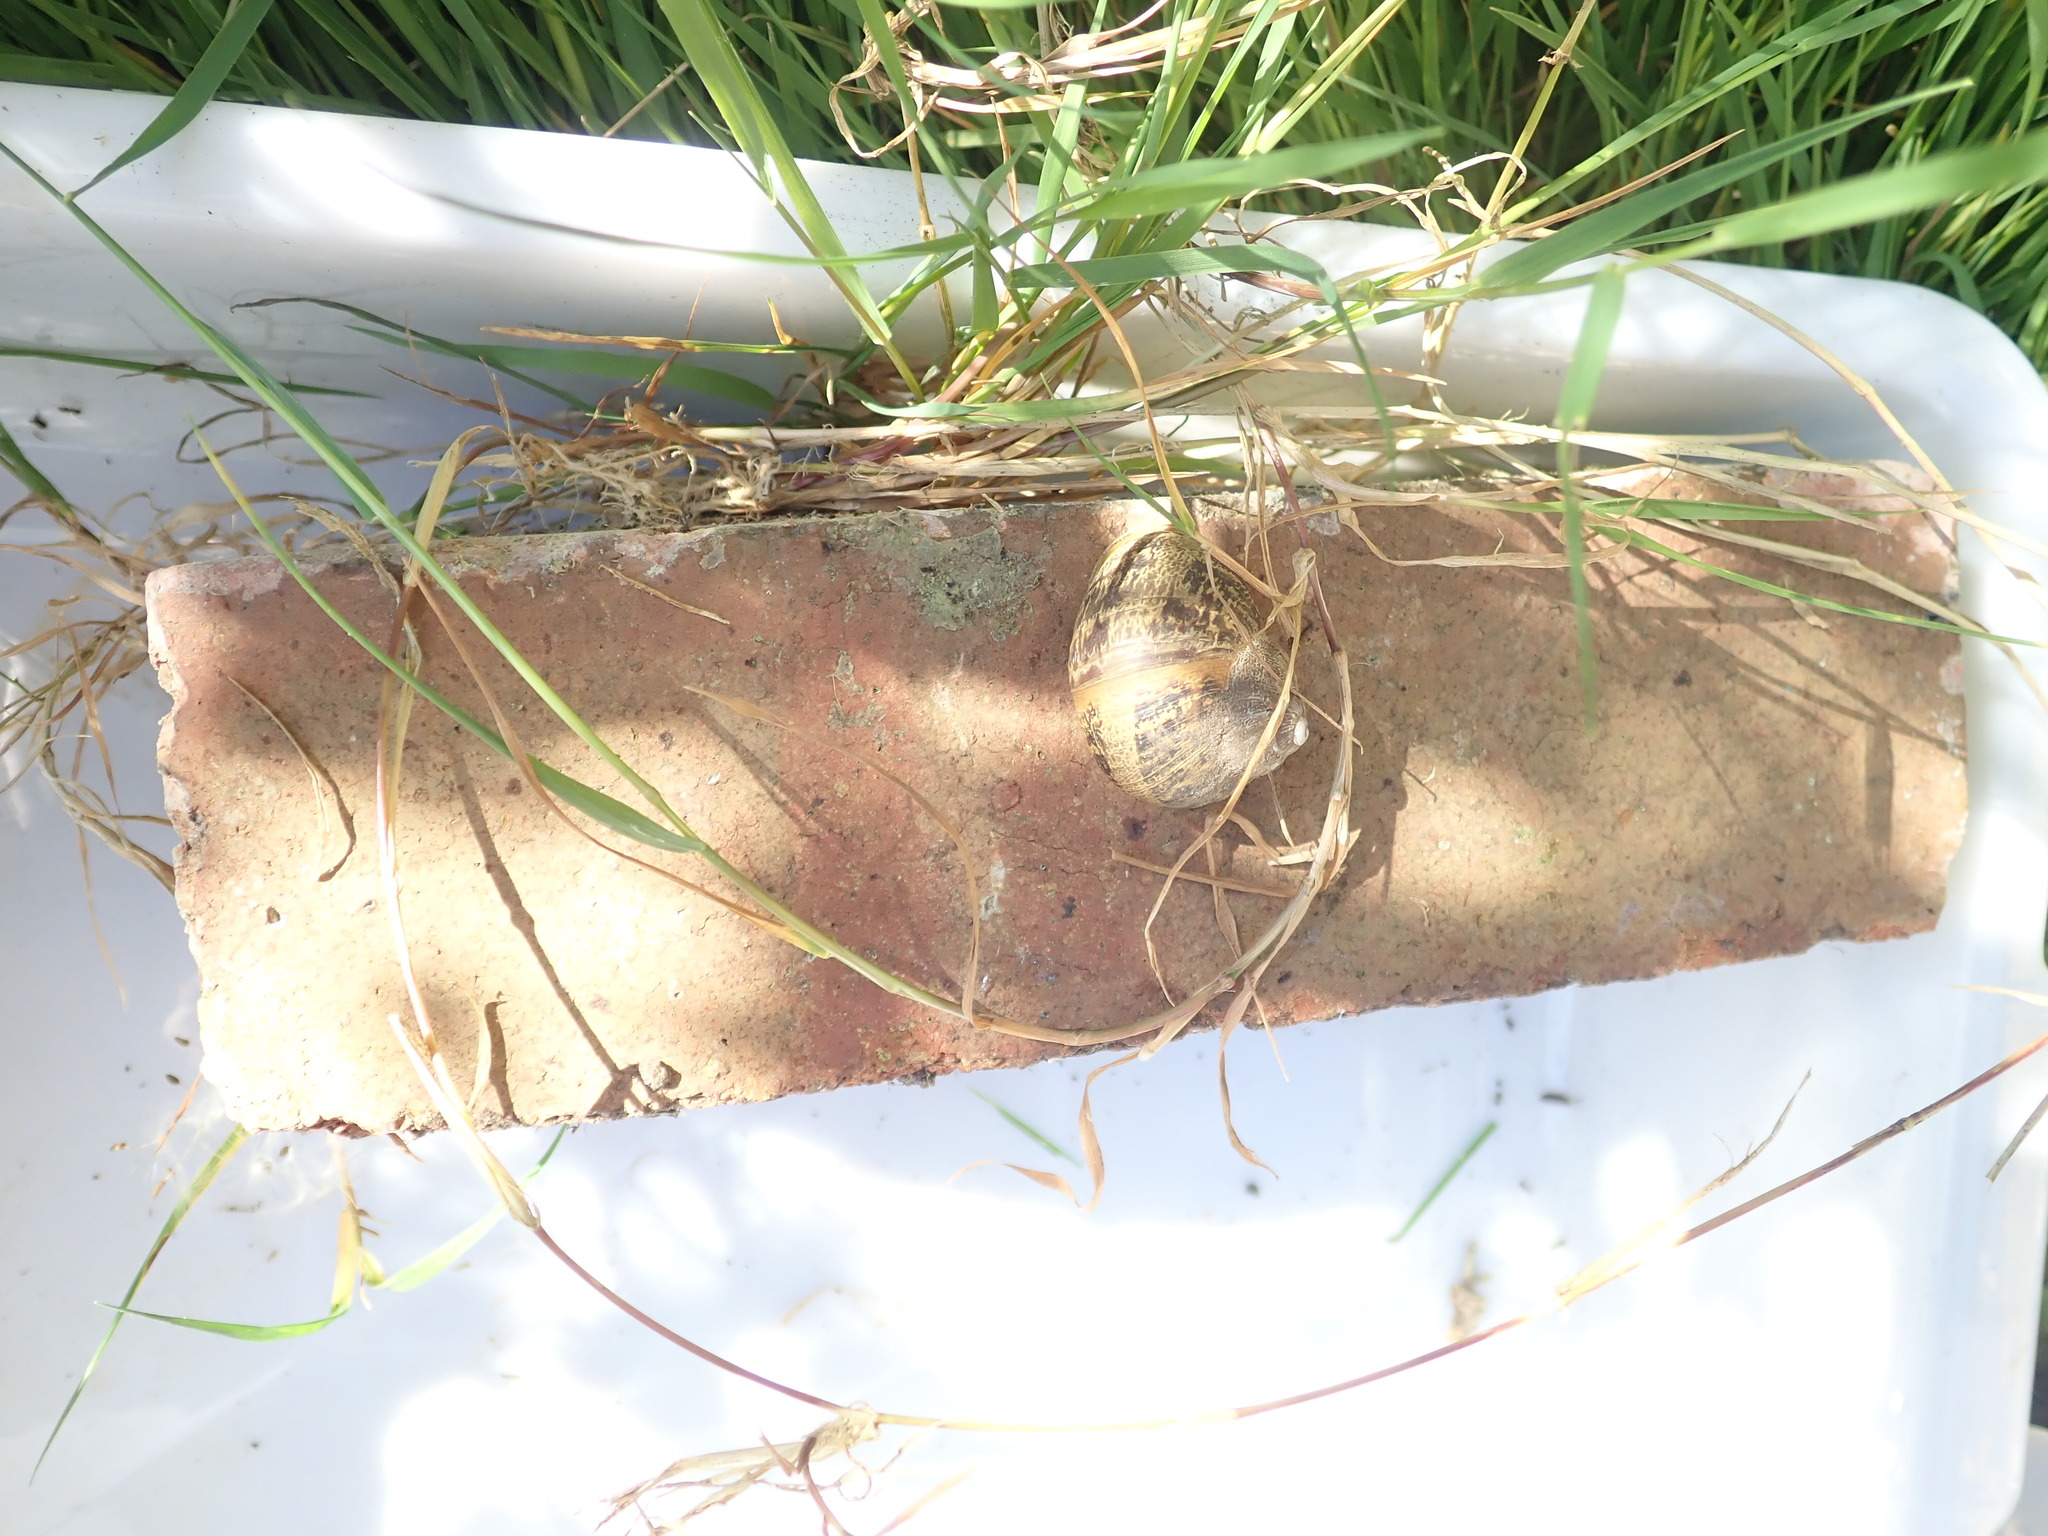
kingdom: Animalia
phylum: Mollusca
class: Gastropoda
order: Stylommatophora
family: Helicidae
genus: Cornu
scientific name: Cornu aspersum
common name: Brown garden snail
